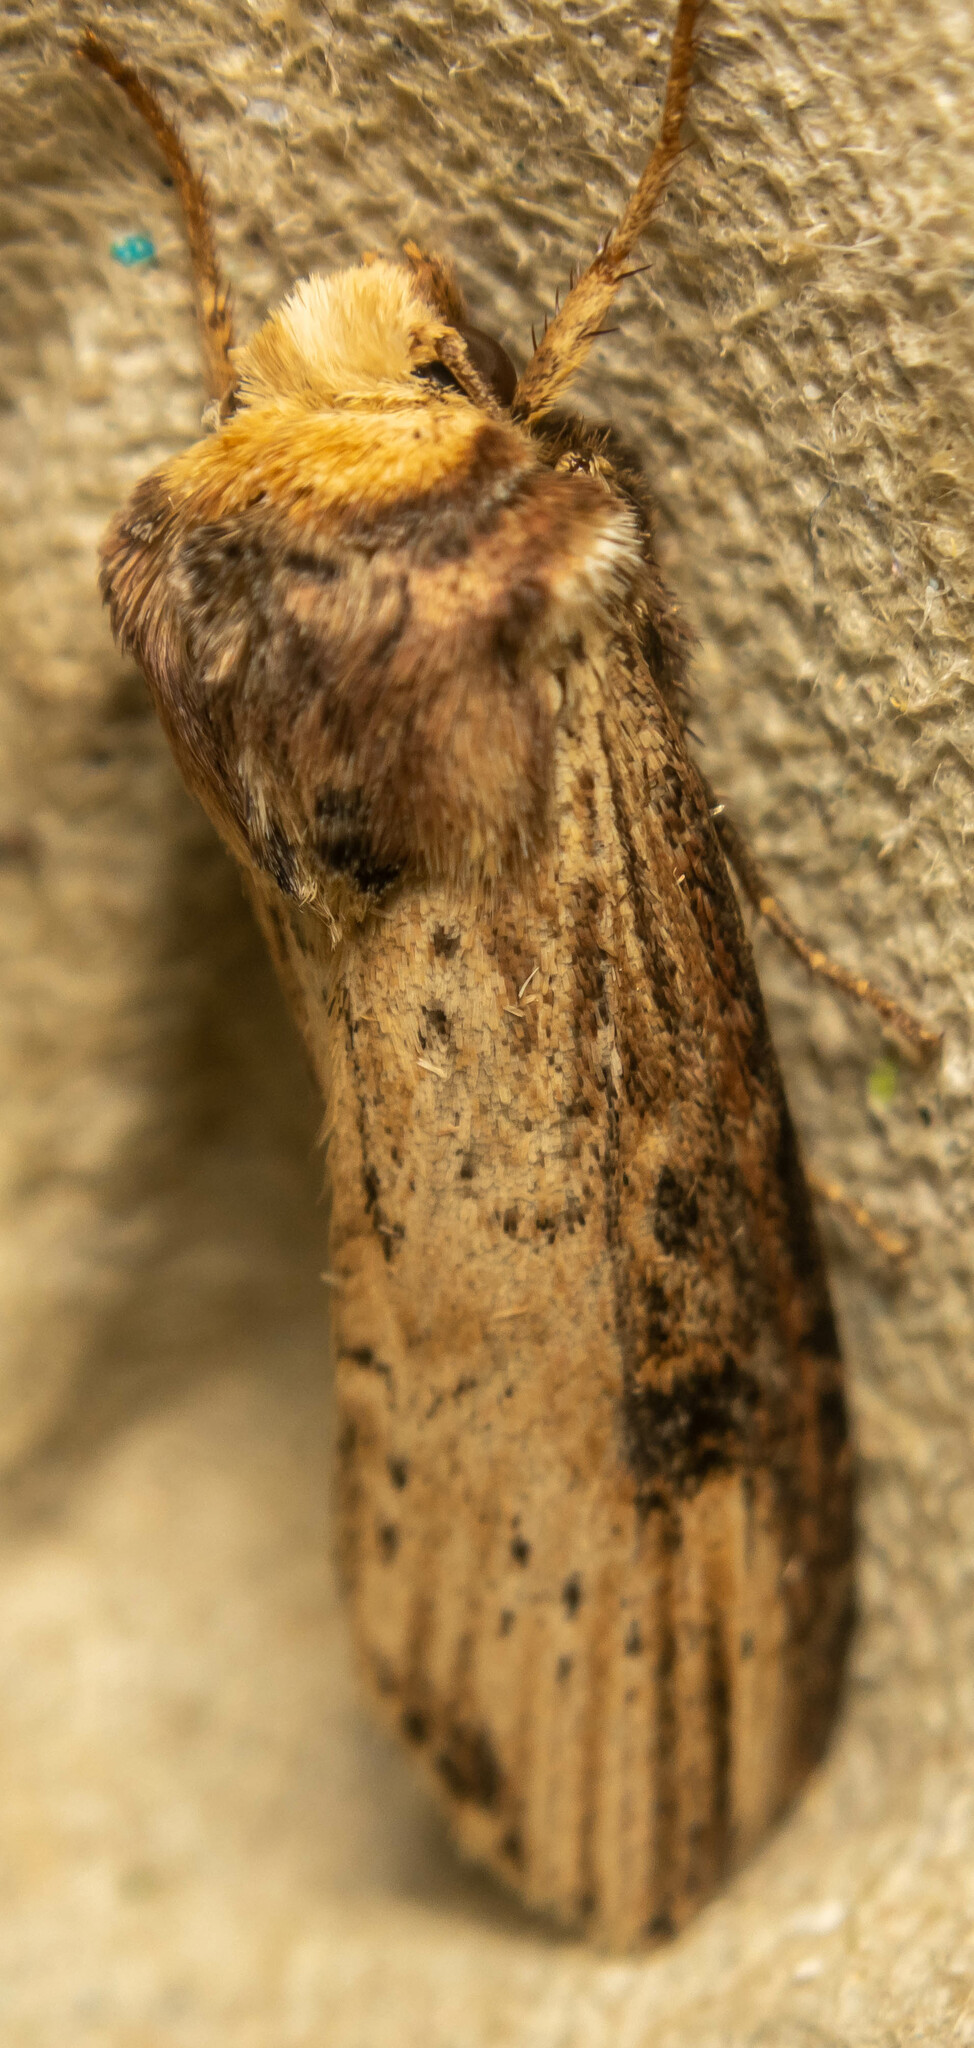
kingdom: Animalia
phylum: Arthropoda
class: Insecta
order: Lepidoptera
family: Noctuidae
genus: Axylia
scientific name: Axylia putris
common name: Flame
